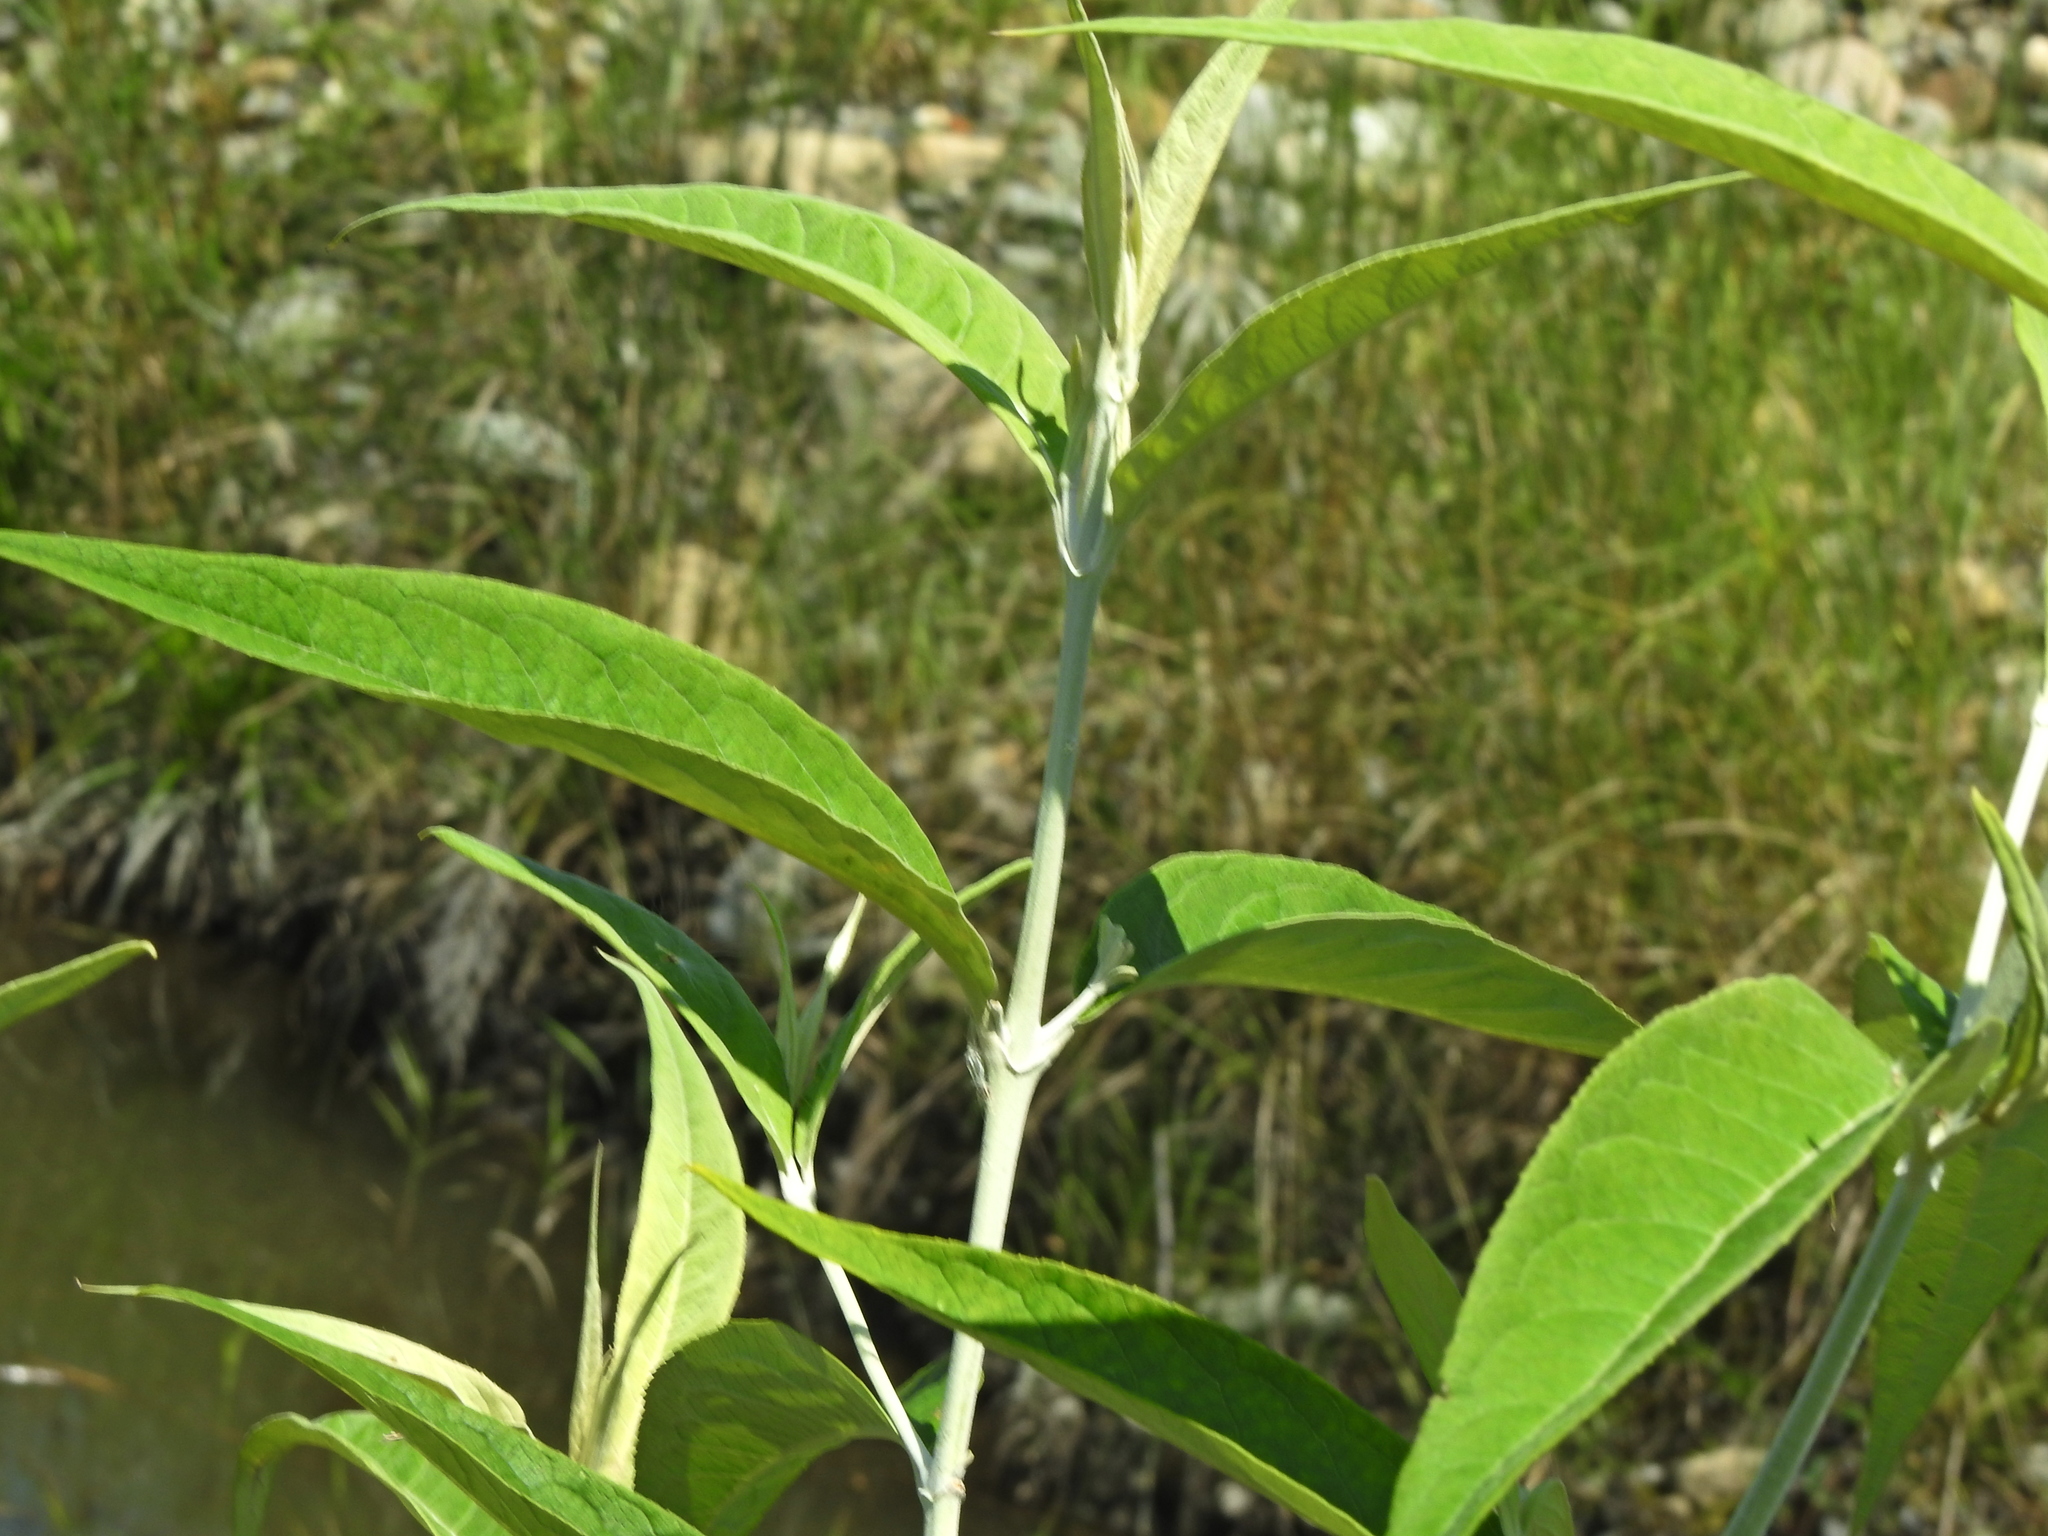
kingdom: Plantae
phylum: Tracheophyta
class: Magnoliopsida
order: Lamiales
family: Scrophulariaceae
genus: Buddleja
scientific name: Buddleja asiatica
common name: Dog tail
